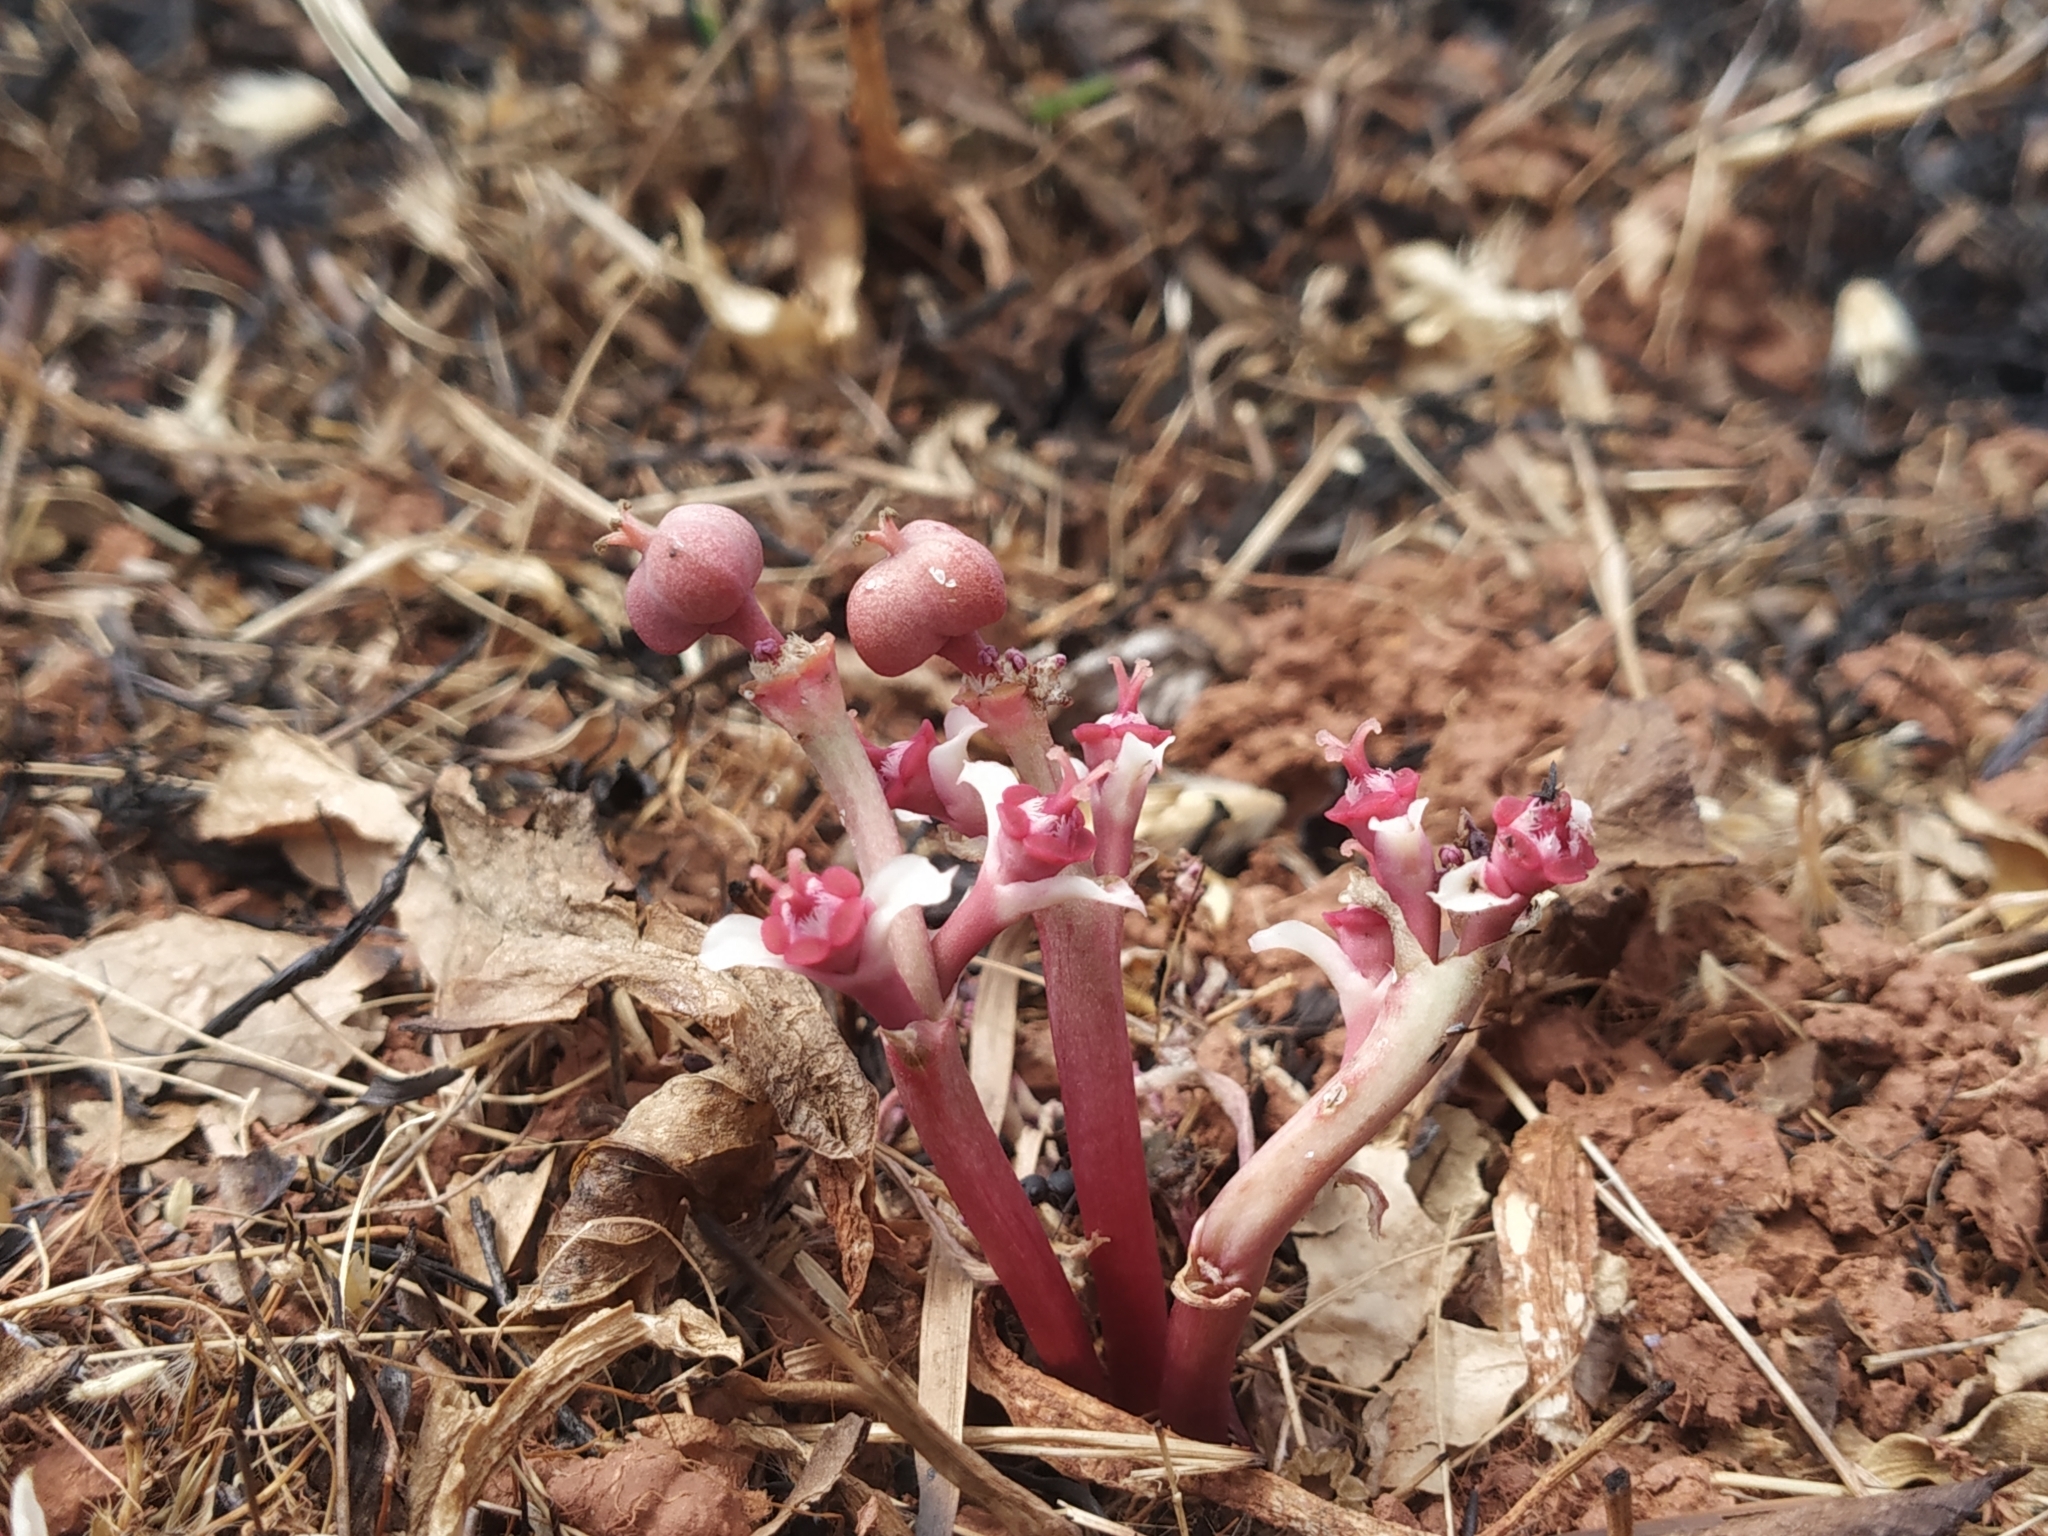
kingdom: Plantae
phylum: Tracheophyta
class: Magnoliopsida
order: Malpighiales
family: Euphorbiaceae
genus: Euphorbia
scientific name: Euphorbia khandallensis
